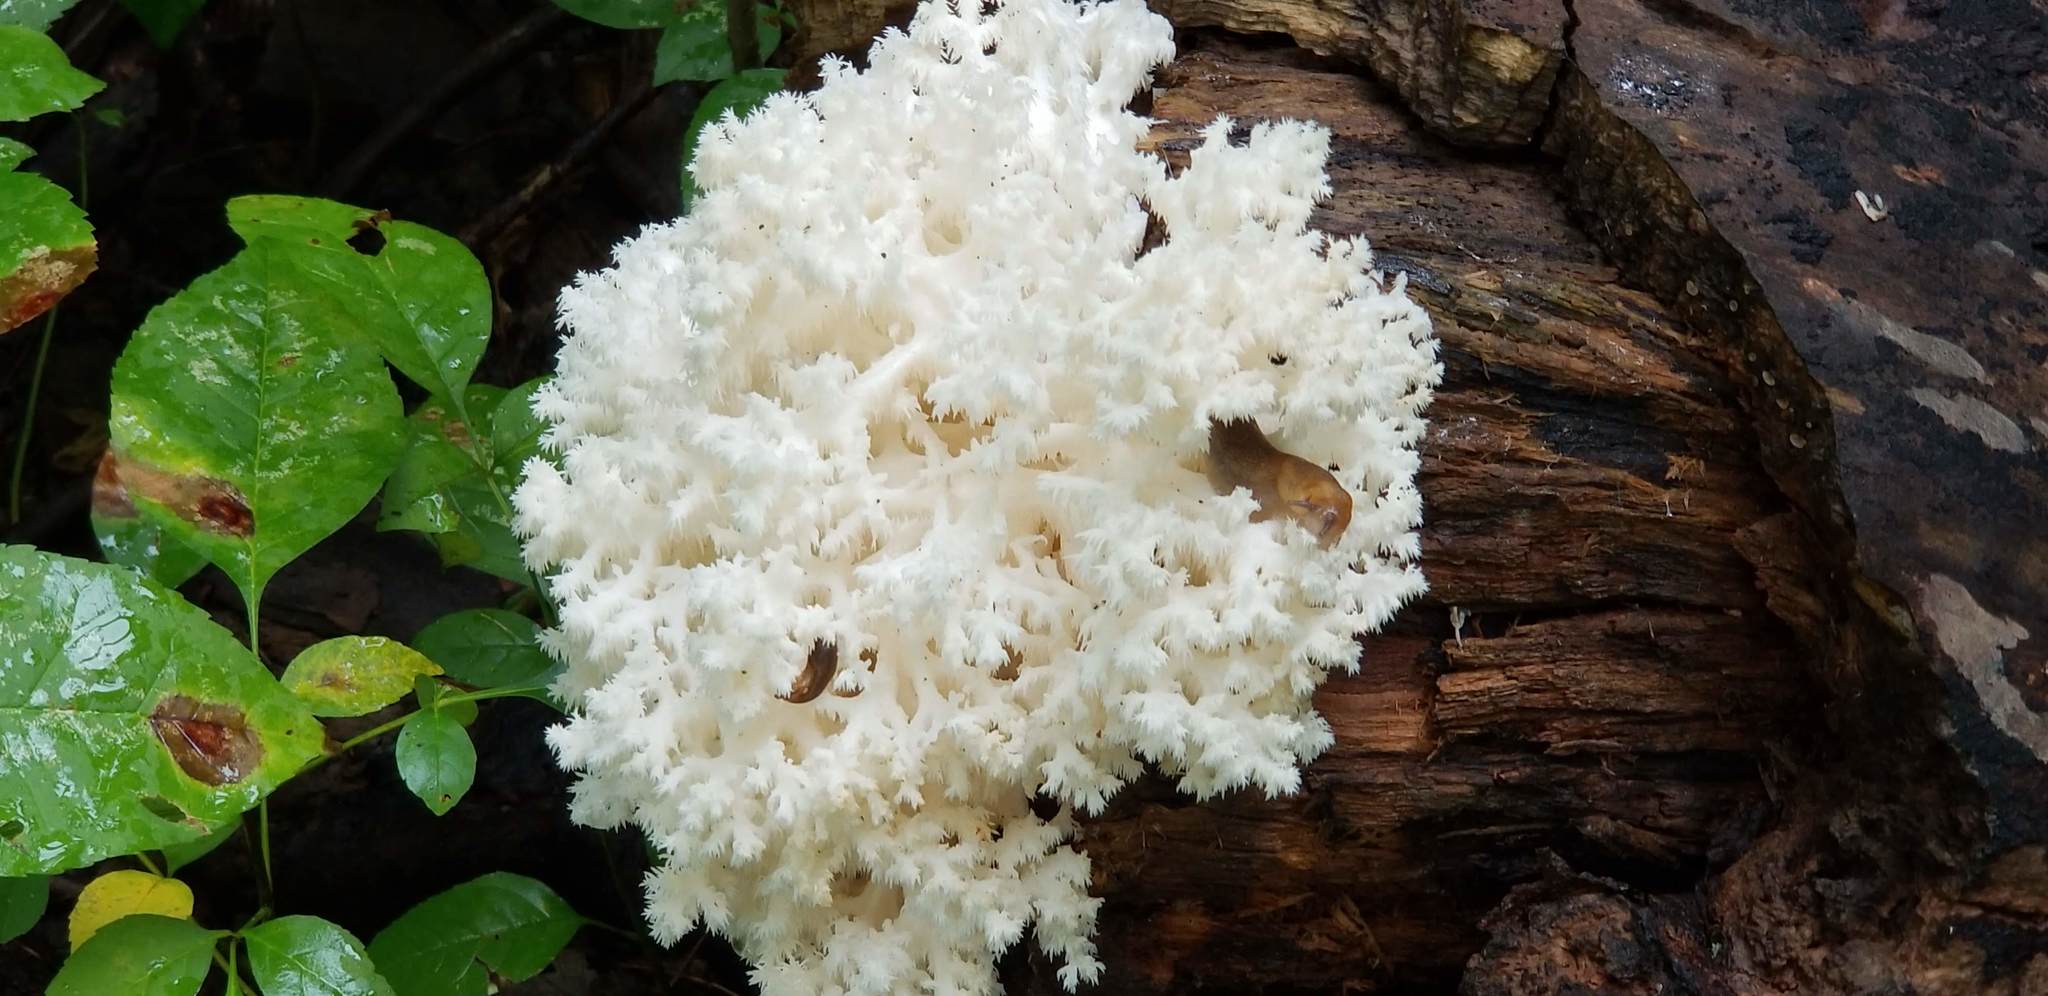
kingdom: Fungi
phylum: Basidiomycota
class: Agaricomycetes
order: Russulales
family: Hericiaceae
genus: Hericium
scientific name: Hericium coralloides
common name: Coral tooth
